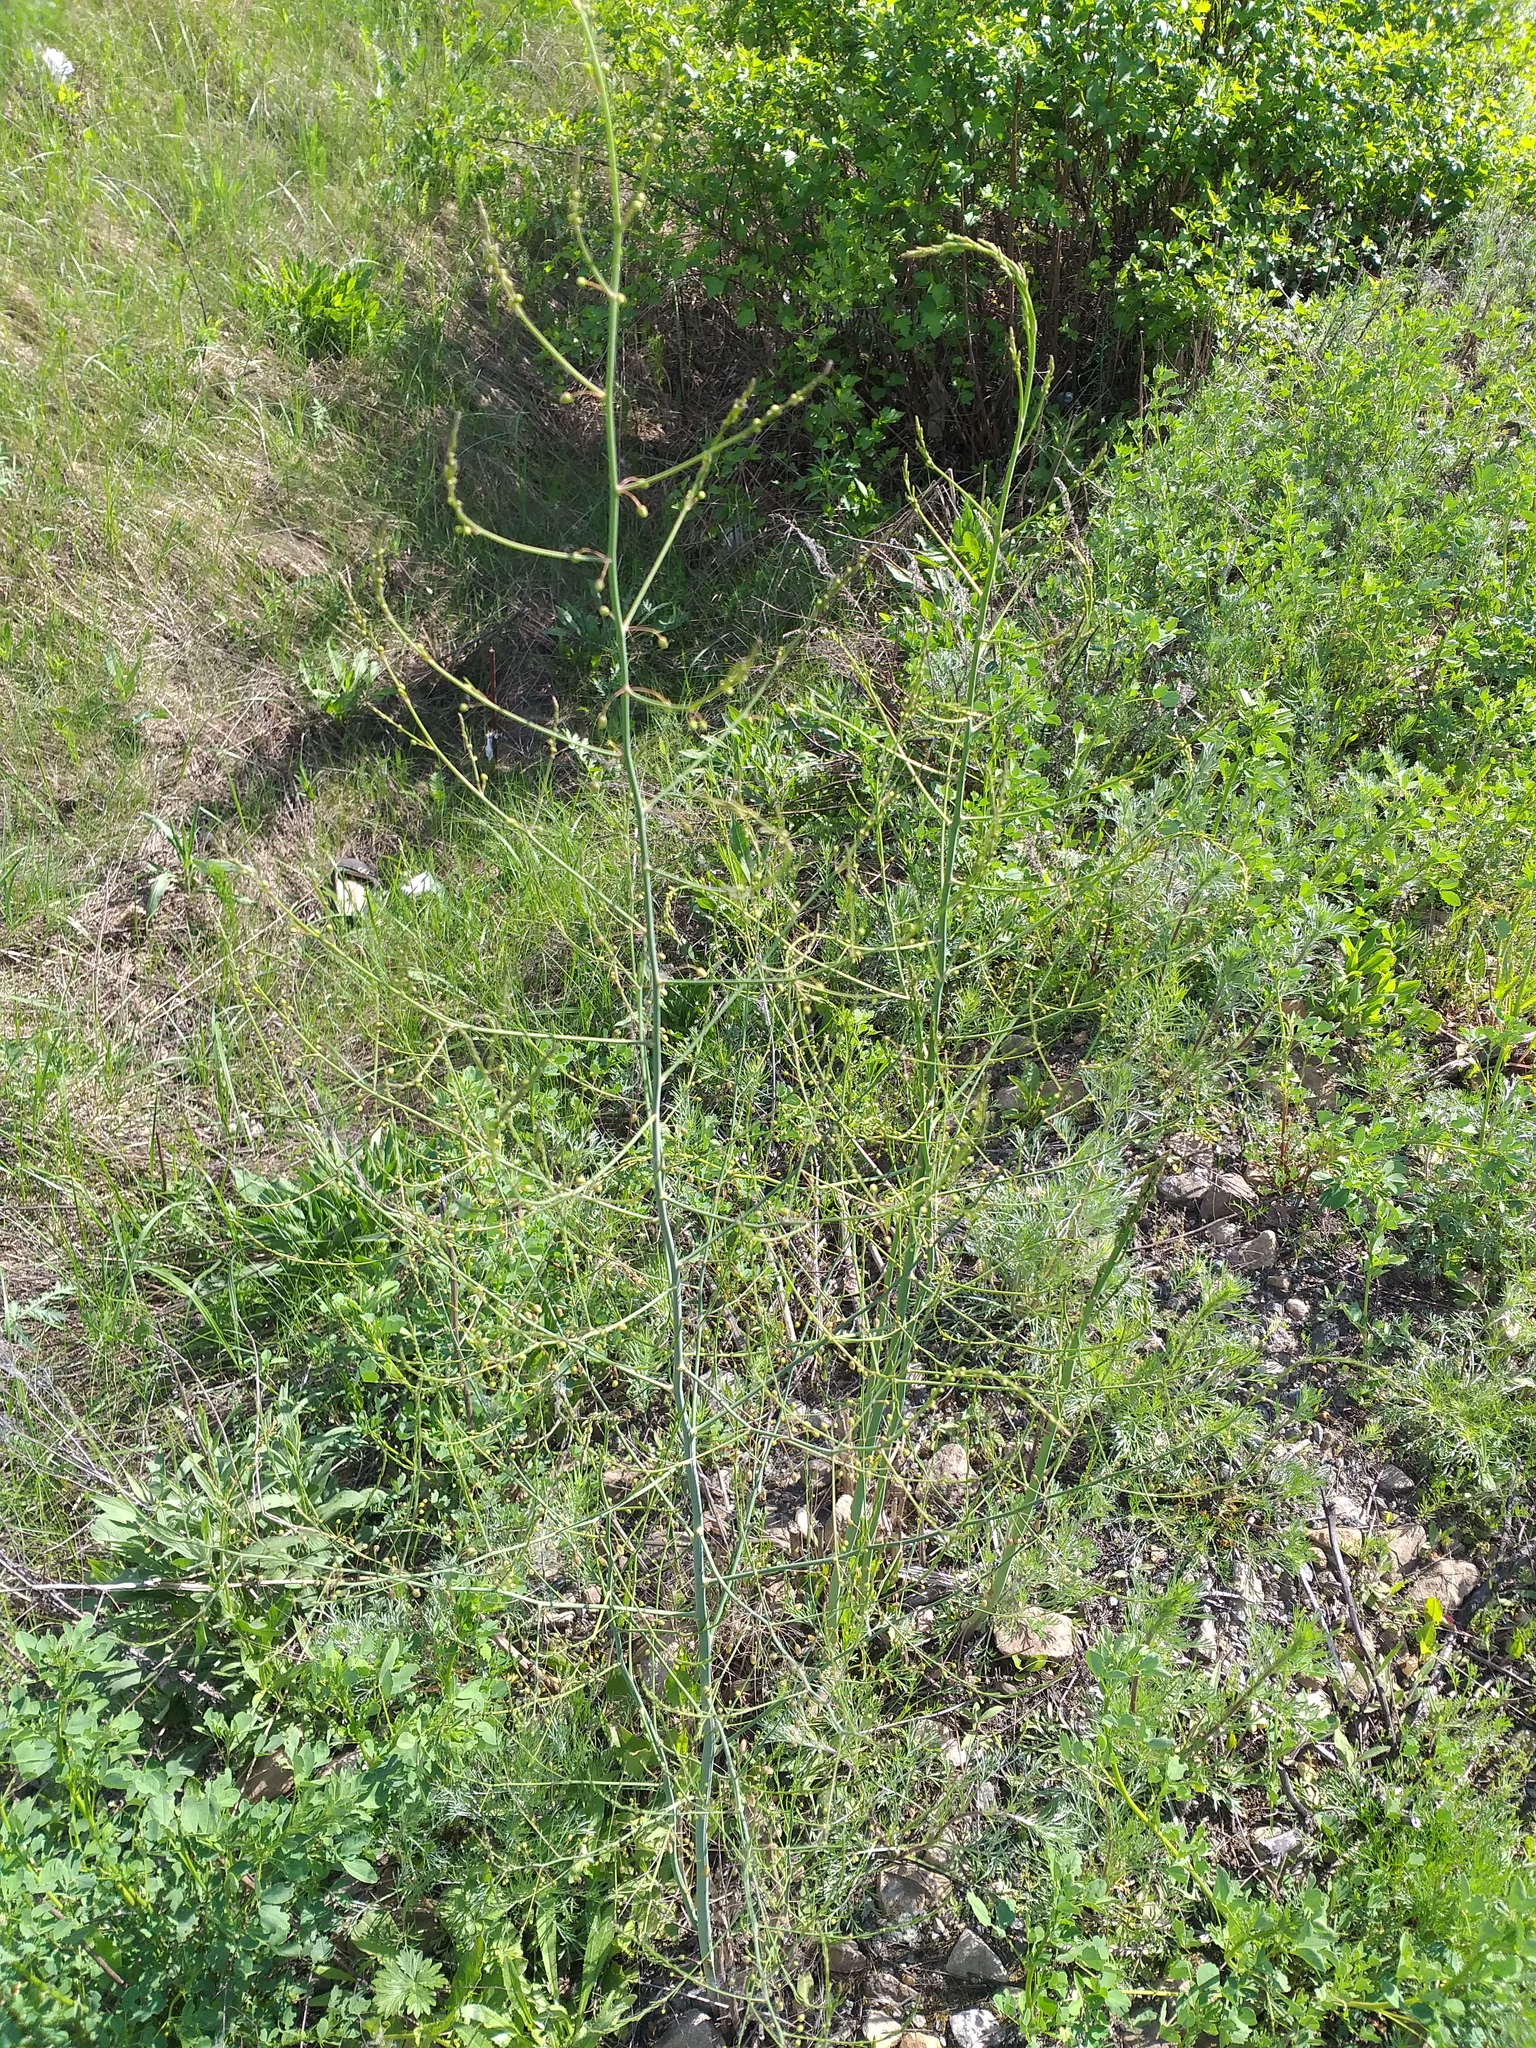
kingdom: Plantae
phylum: Tracheophyta
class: Liliopsida
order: Asparagales
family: Asparagaceae
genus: Asparagus
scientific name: Asparagus officinalis
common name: Garden asparagus
